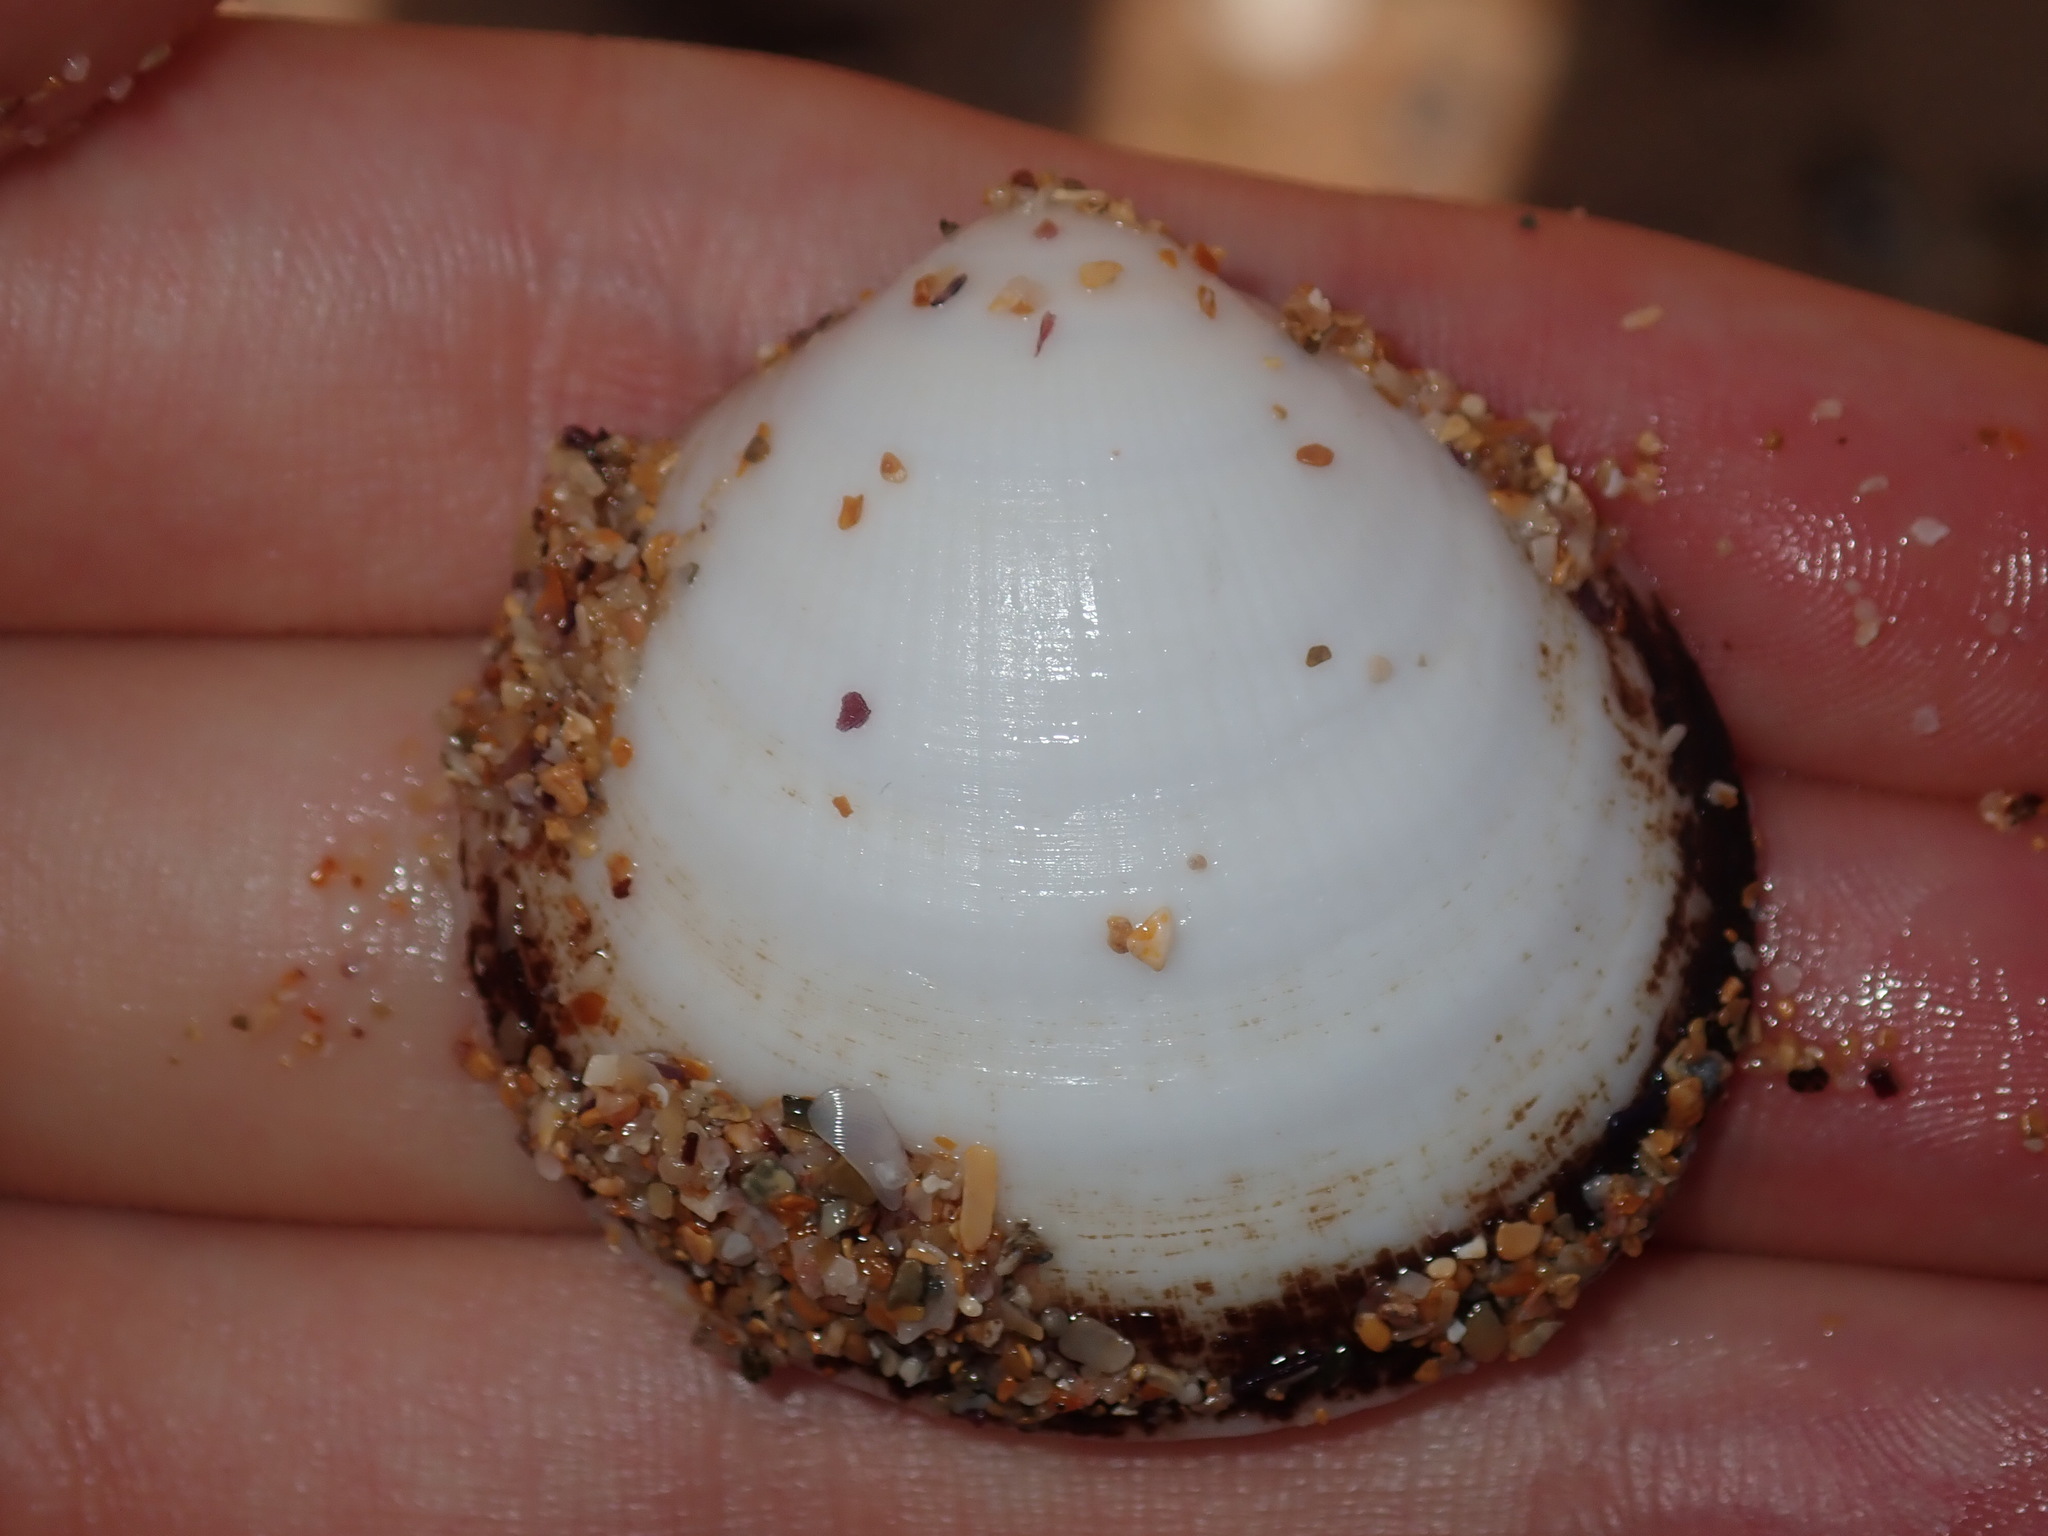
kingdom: Animalia
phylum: Mollusca
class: Bivalvia
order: Arcida
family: Glycymerididae
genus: Glycymeris
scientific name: Glycymeris holoserica
